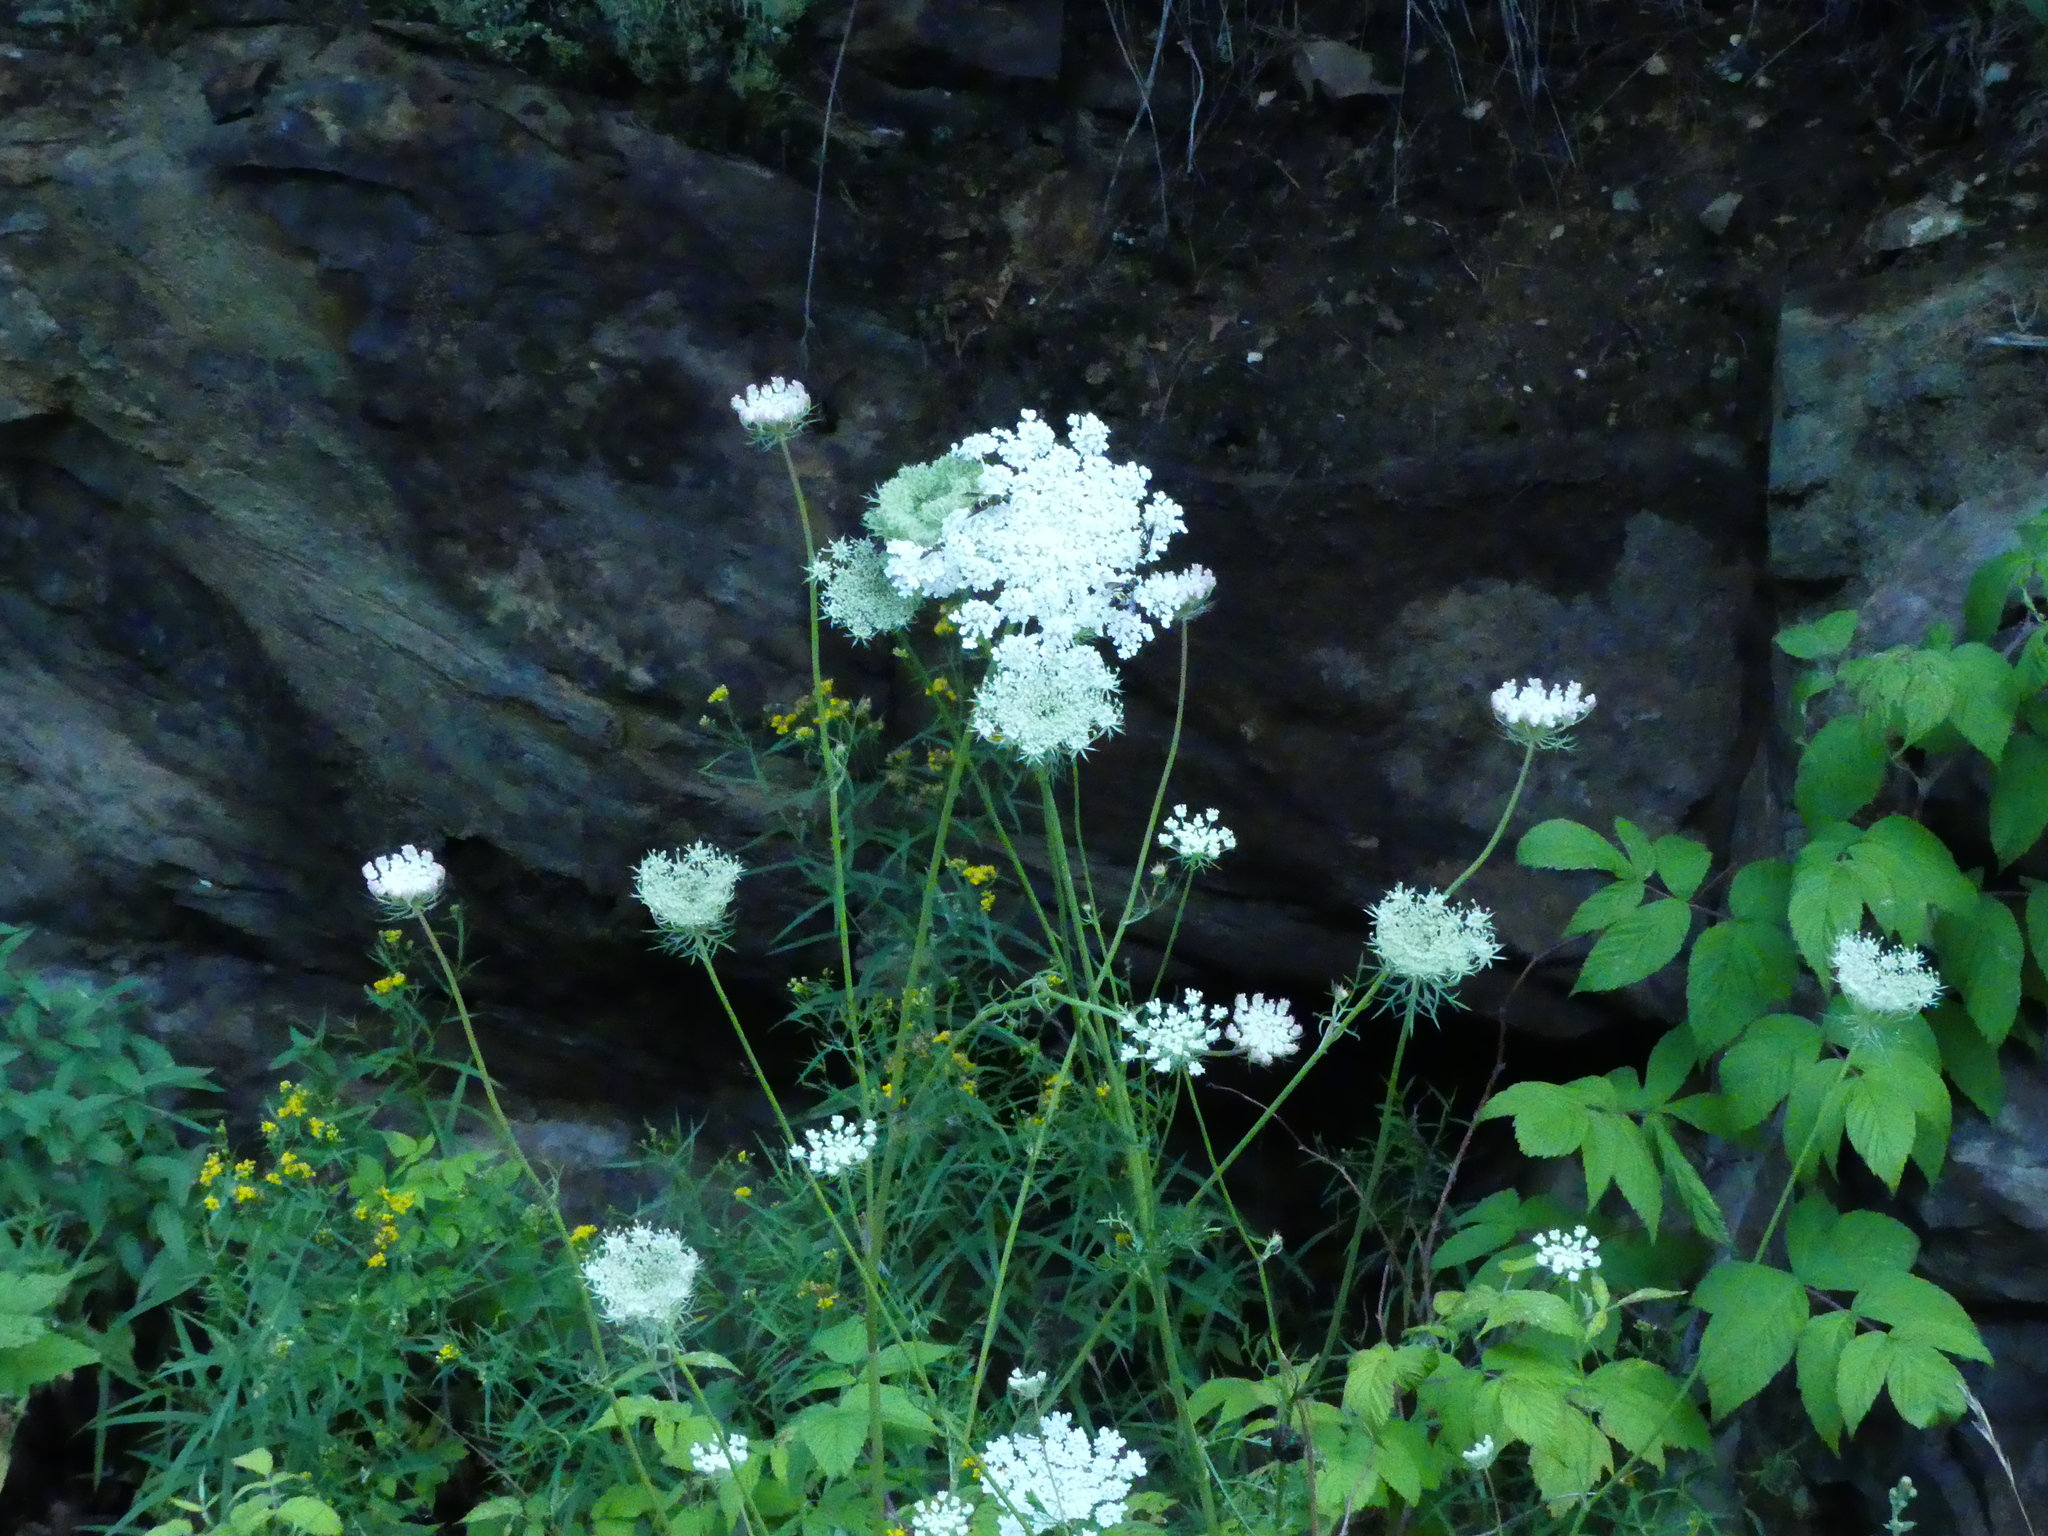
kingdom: Plantae
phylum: Tracheophyta
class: Magnoliopsida
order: Apiales
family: Apiaceae
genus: Daucus
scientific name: Daucus carota
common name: Wild carrot
